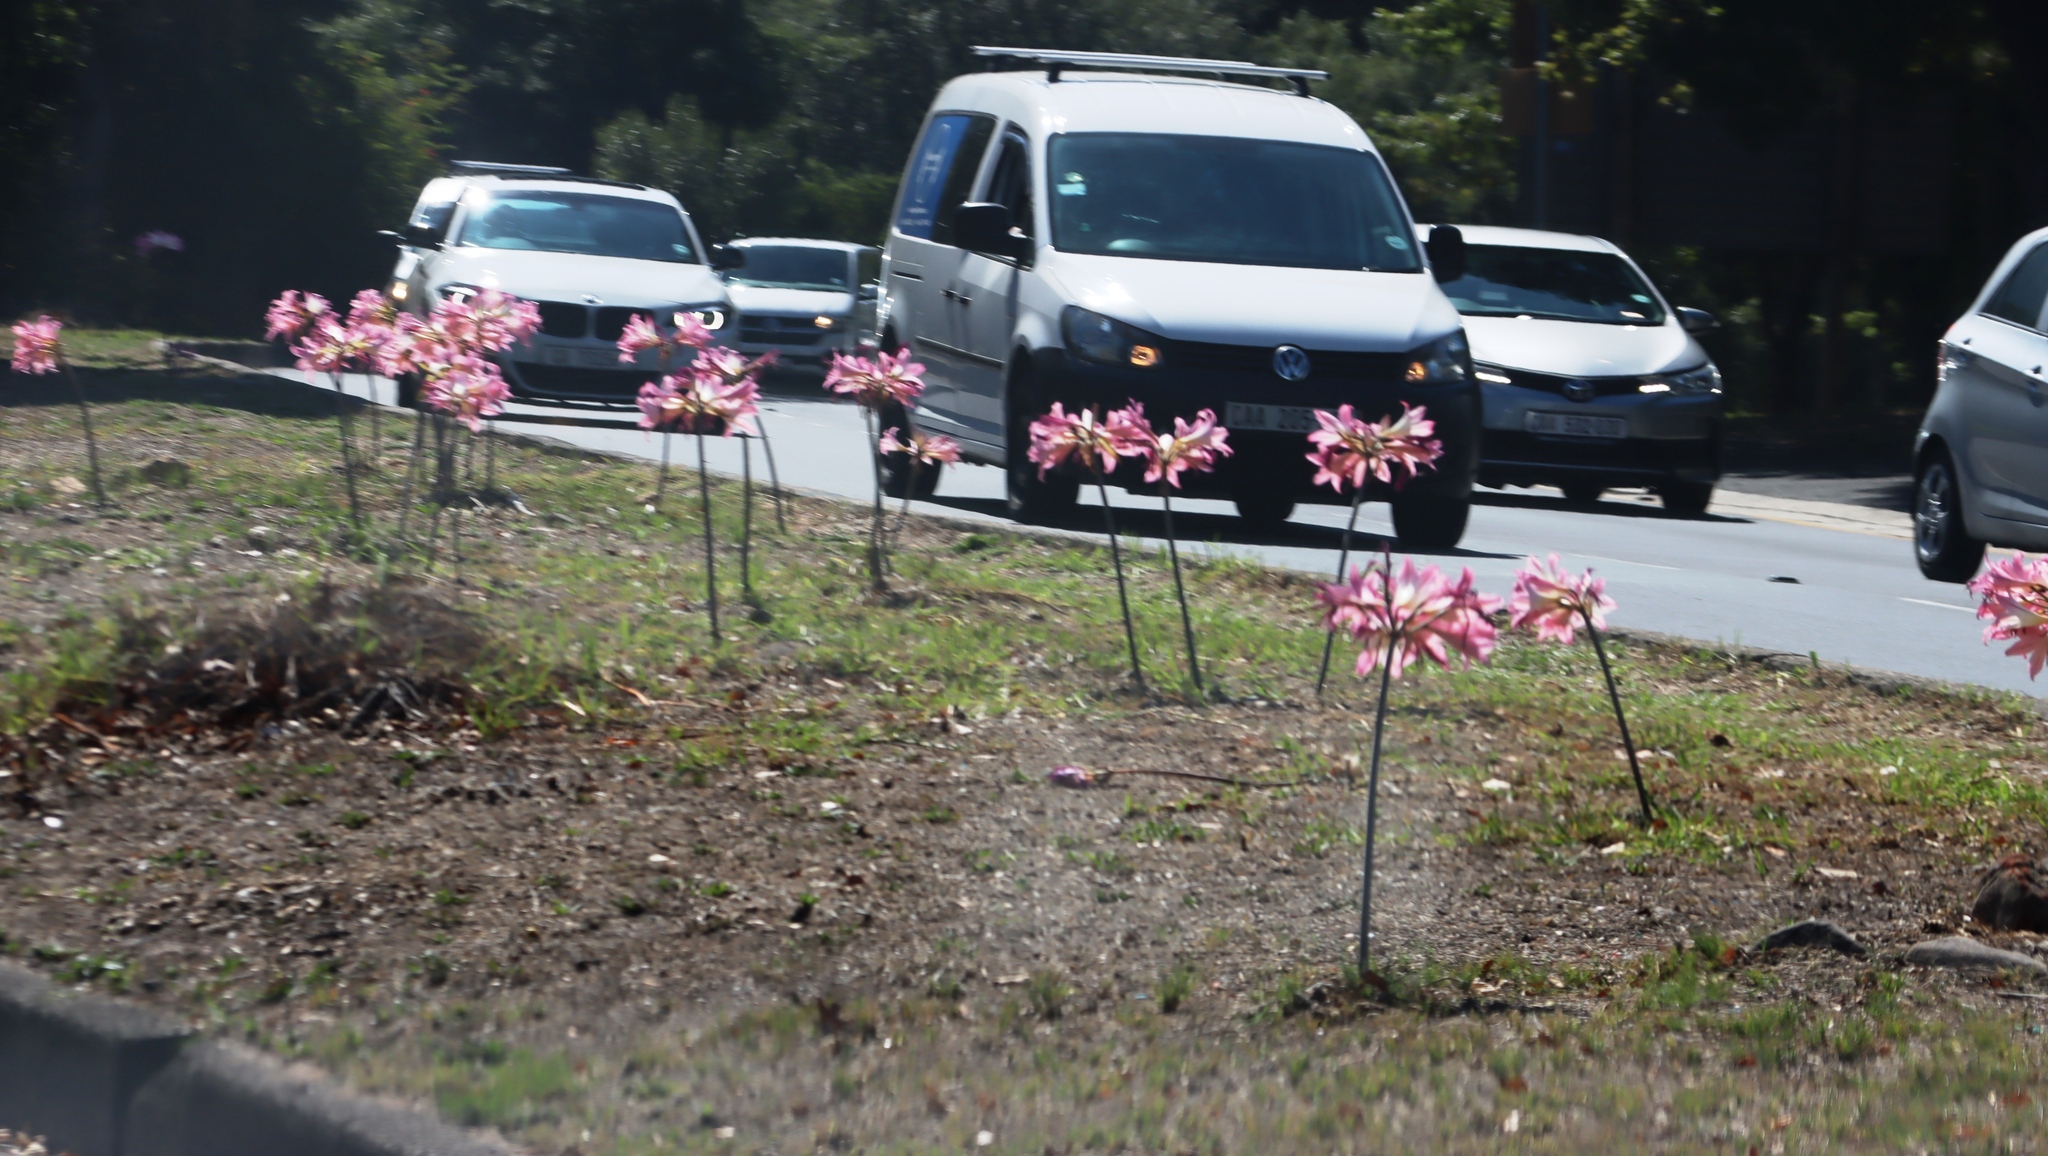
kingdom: Plantae
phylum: Tracheophyta
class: Liliopsida
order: Asparagales
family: Amaryllidaceae
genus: Amaryllis
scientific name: Amaryllis belladonna
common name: Jersey lily
